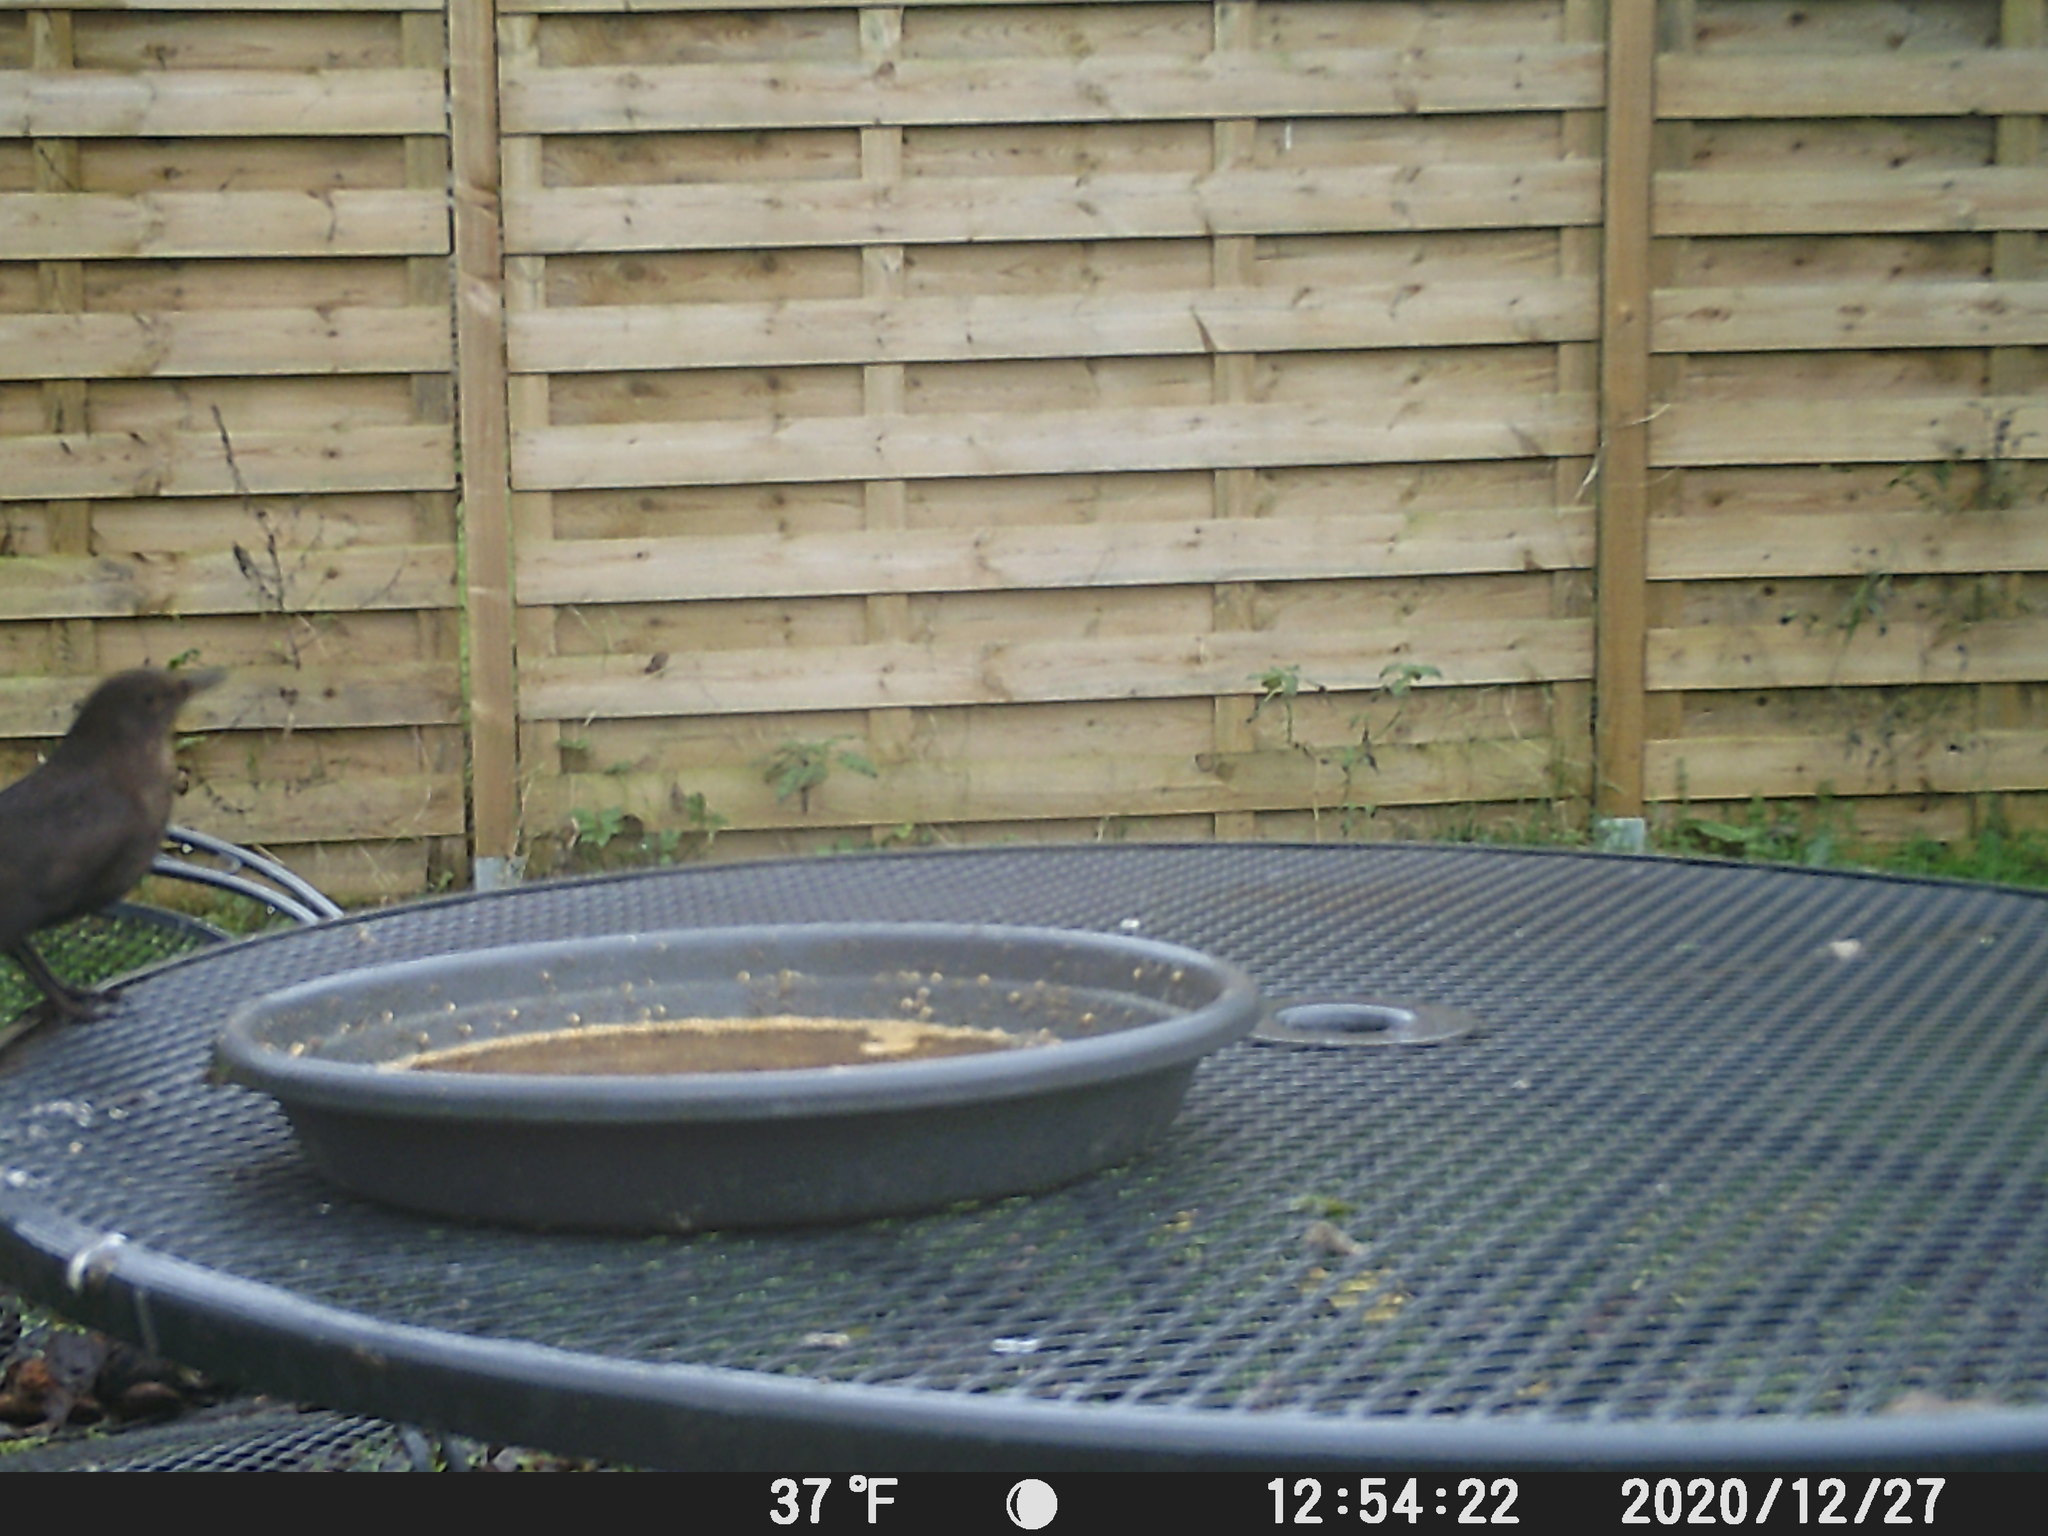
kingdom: Animalia
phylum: Chordata
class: Aves
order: Passeriformes
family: Turdidae
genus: Turdus
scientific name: Turdus merula
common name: Common blackbird
